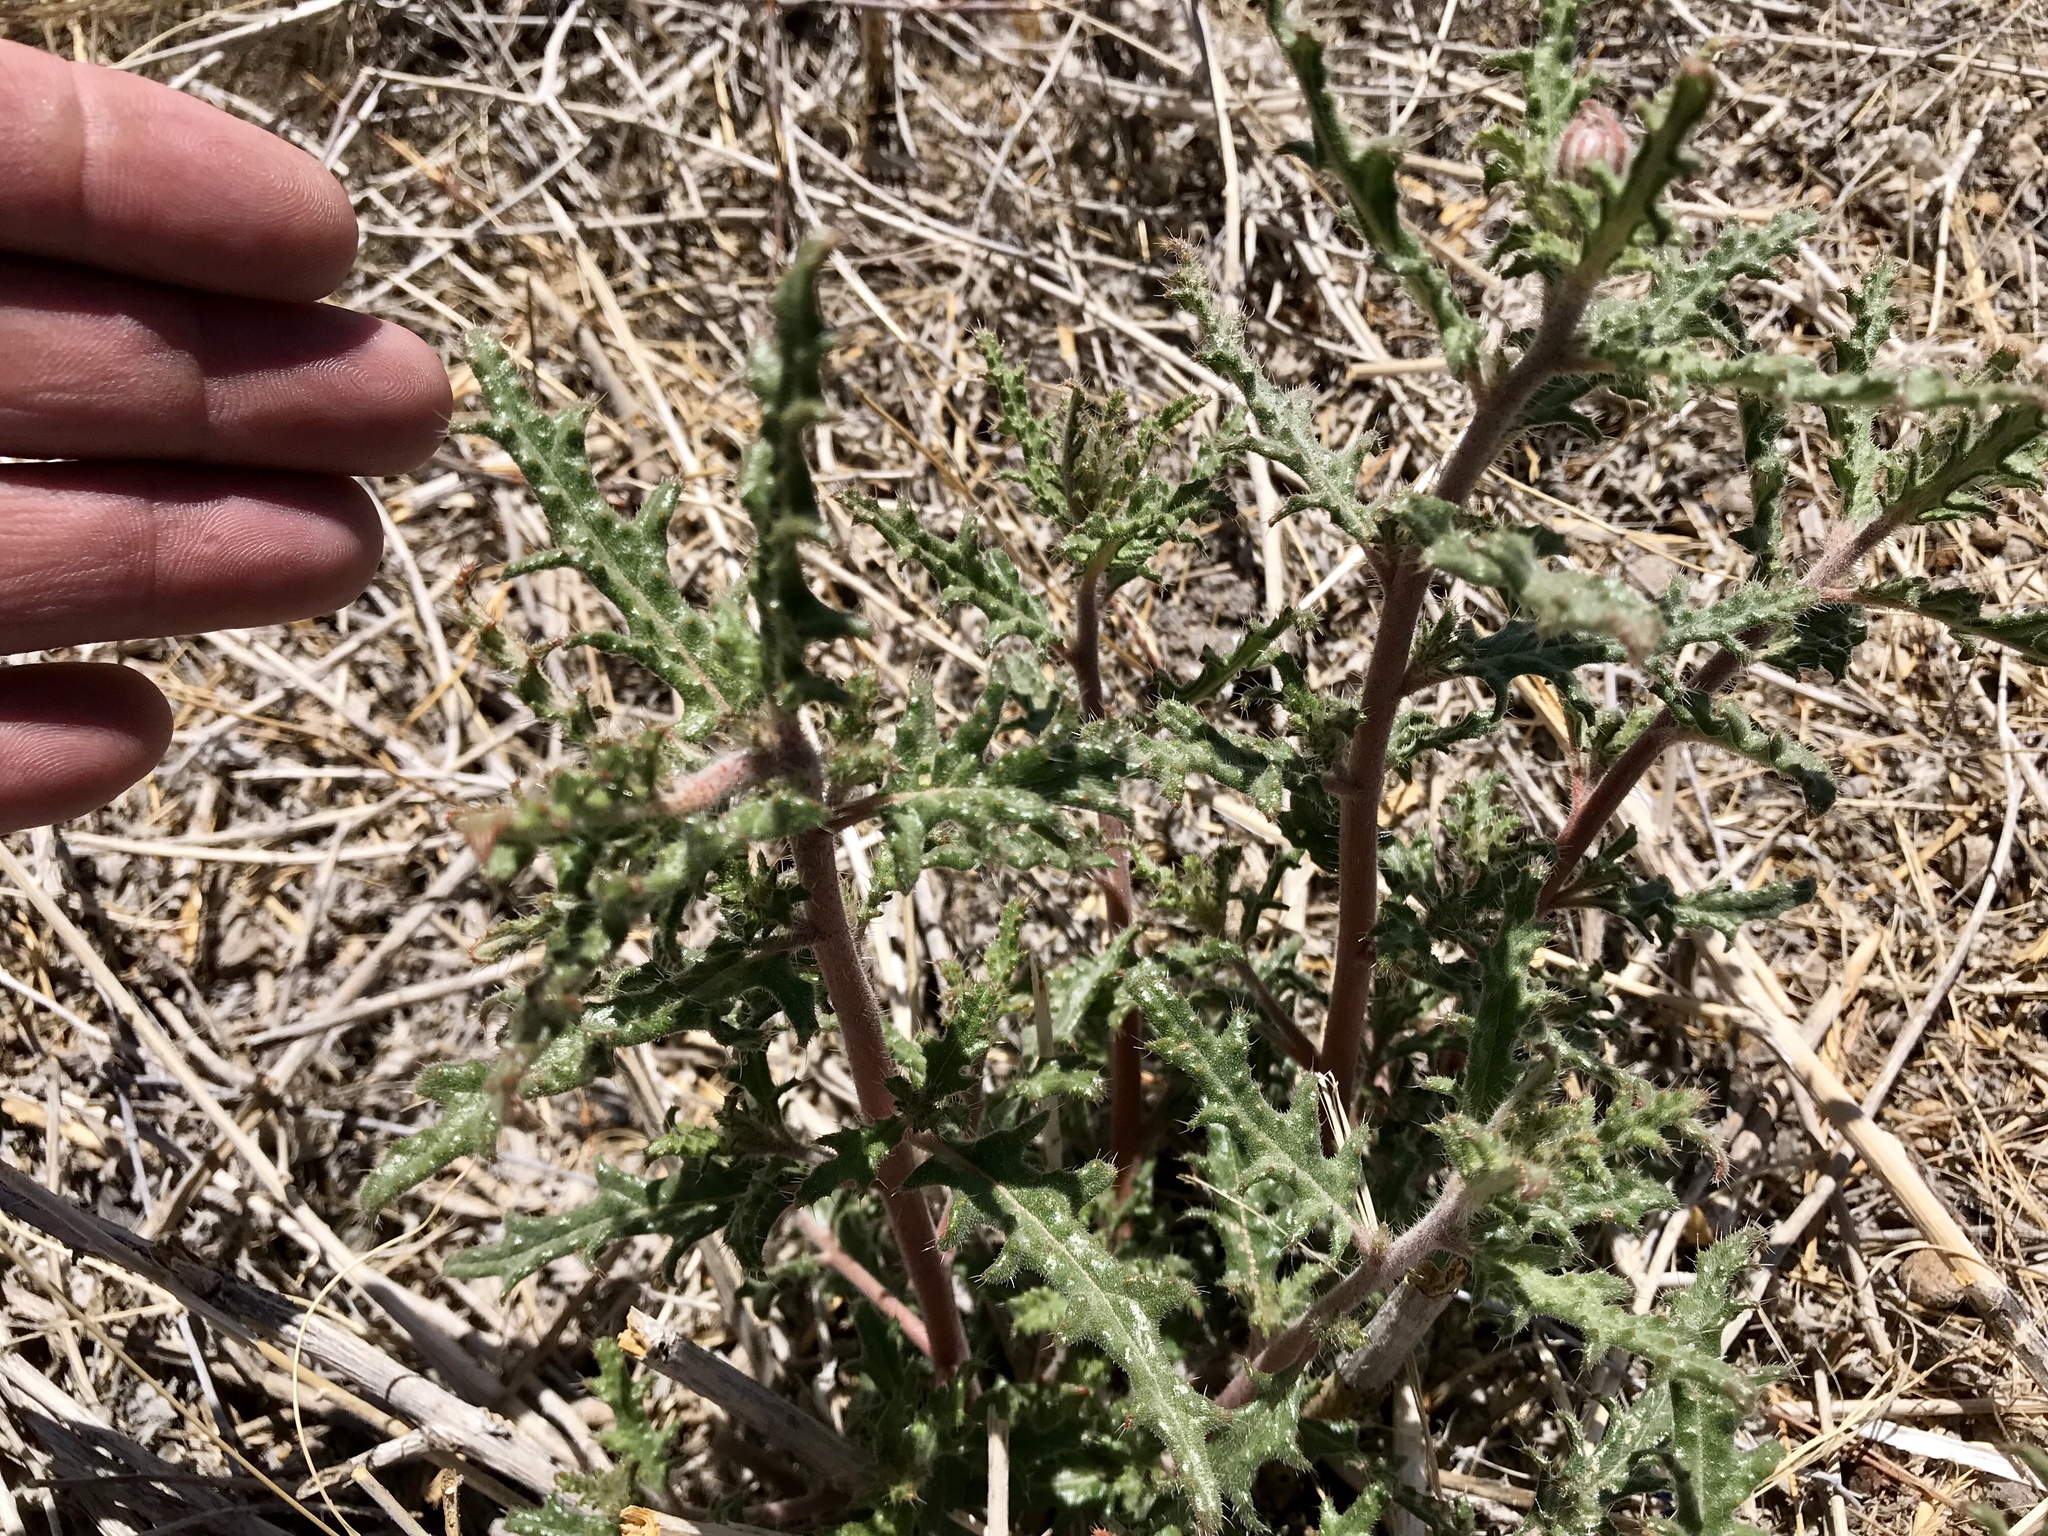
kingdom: Plantae
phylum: Tracheophyta
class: Magnoliopsida
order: Cornales
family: Loasaceae
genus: Cevallia
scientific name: Cevallia sinuata
